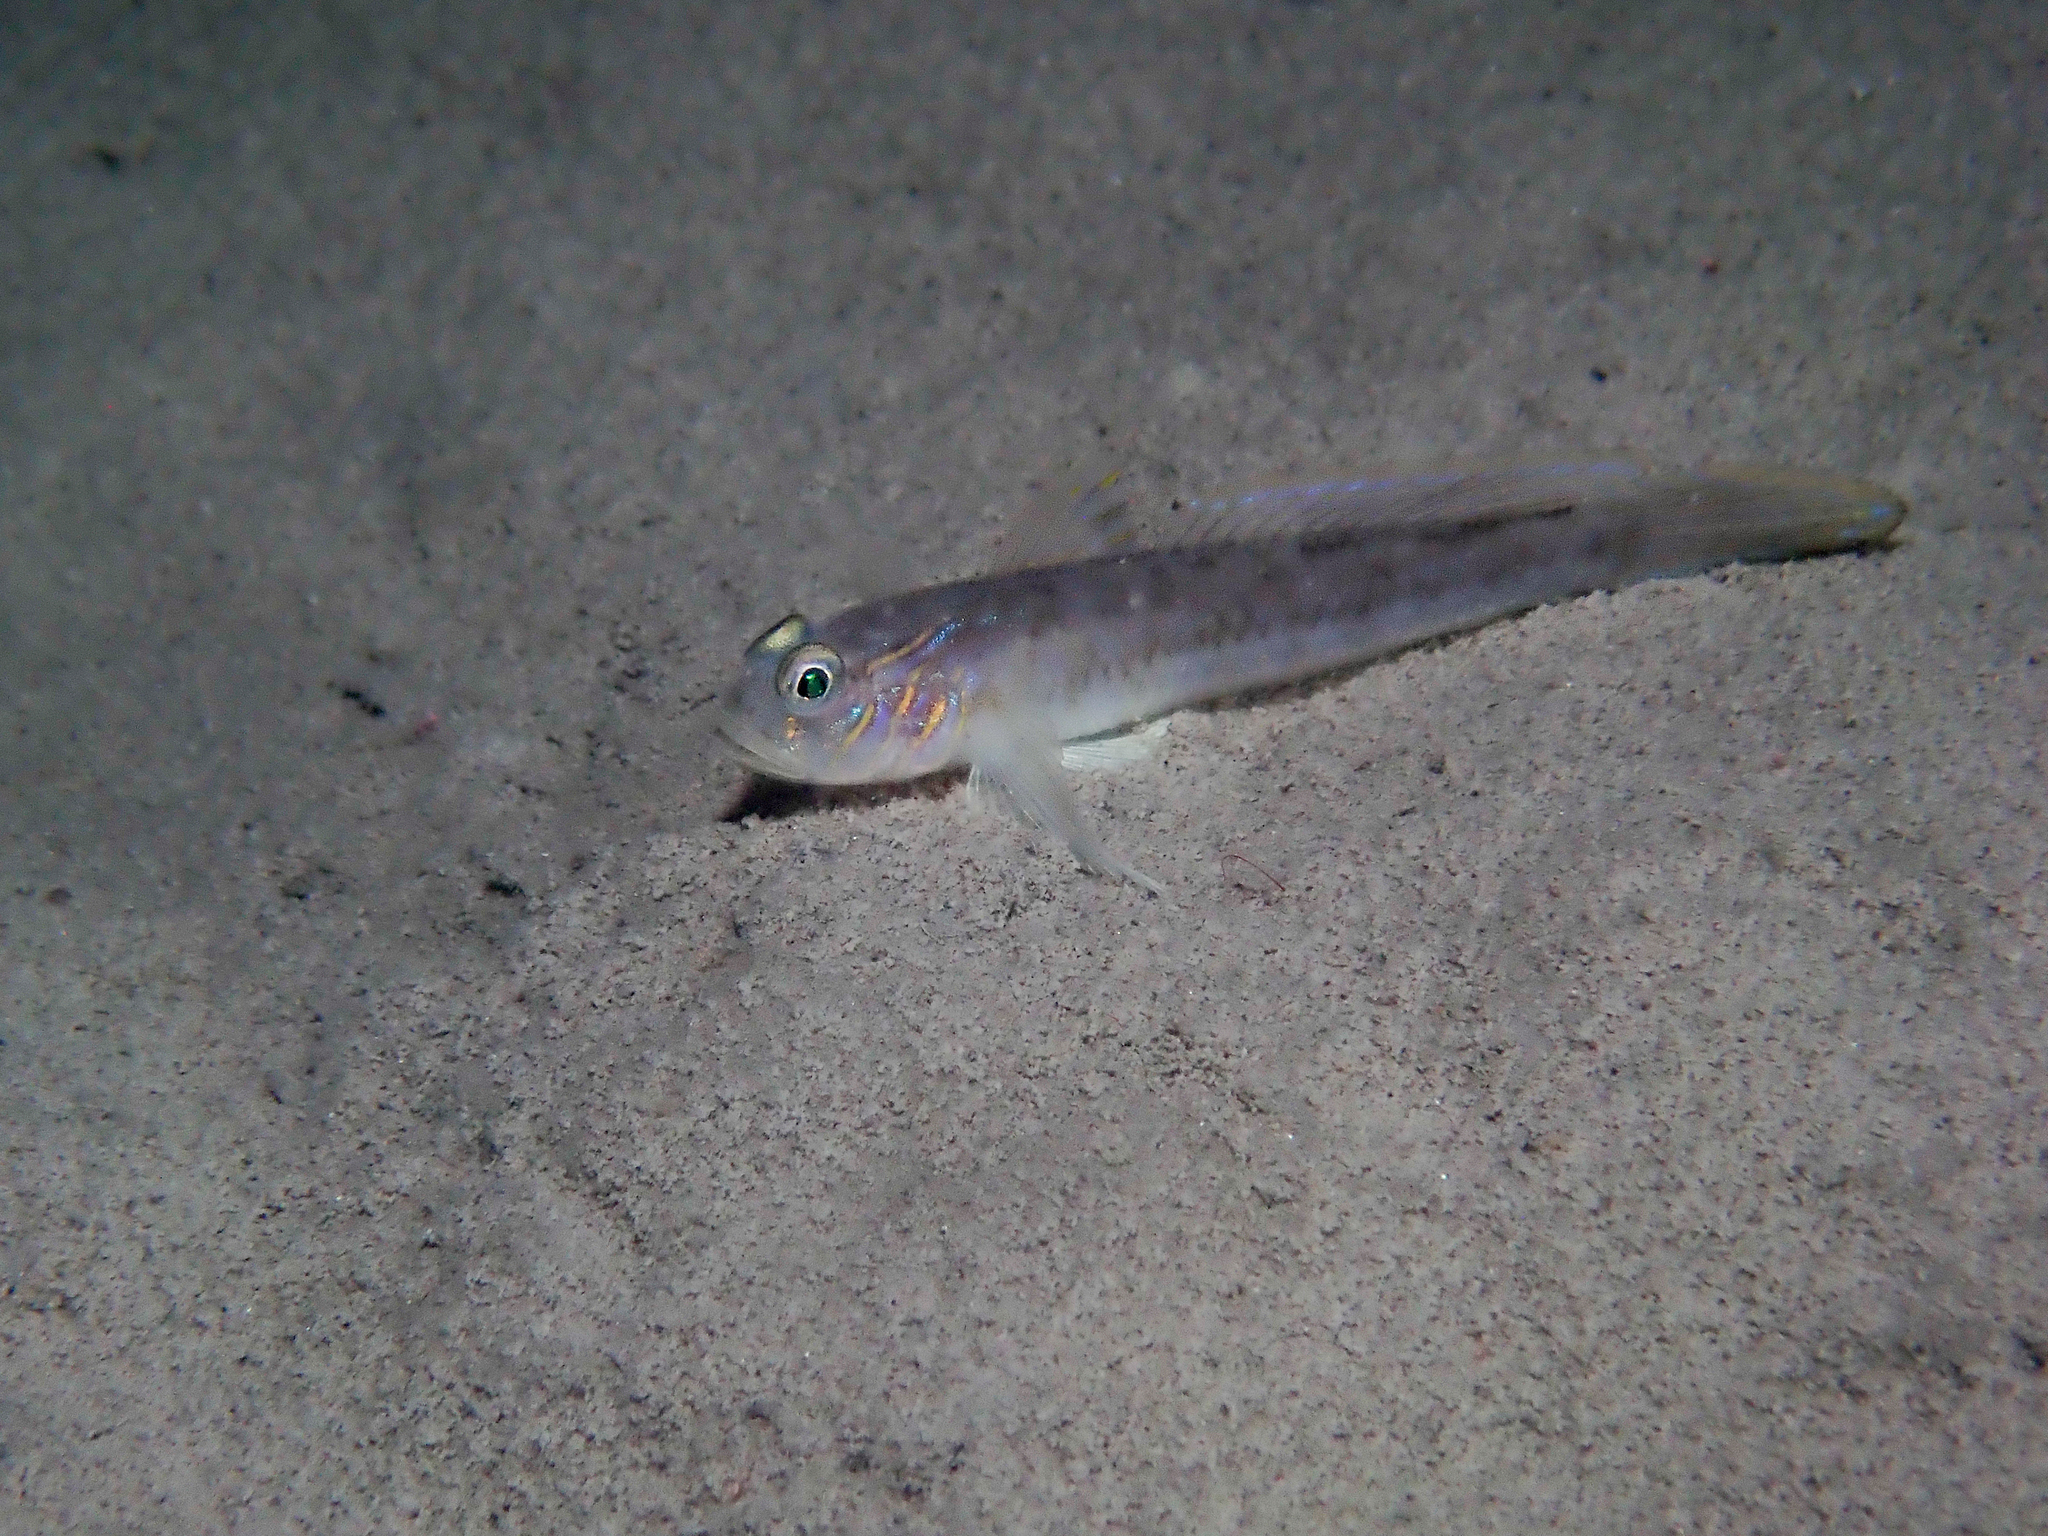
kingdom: Animalia
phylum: Chordata
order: Perciformes
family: Gobiidae
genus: Lesueurigobius
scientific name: Lesueurigobius suerii
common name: Lesueur's goby
